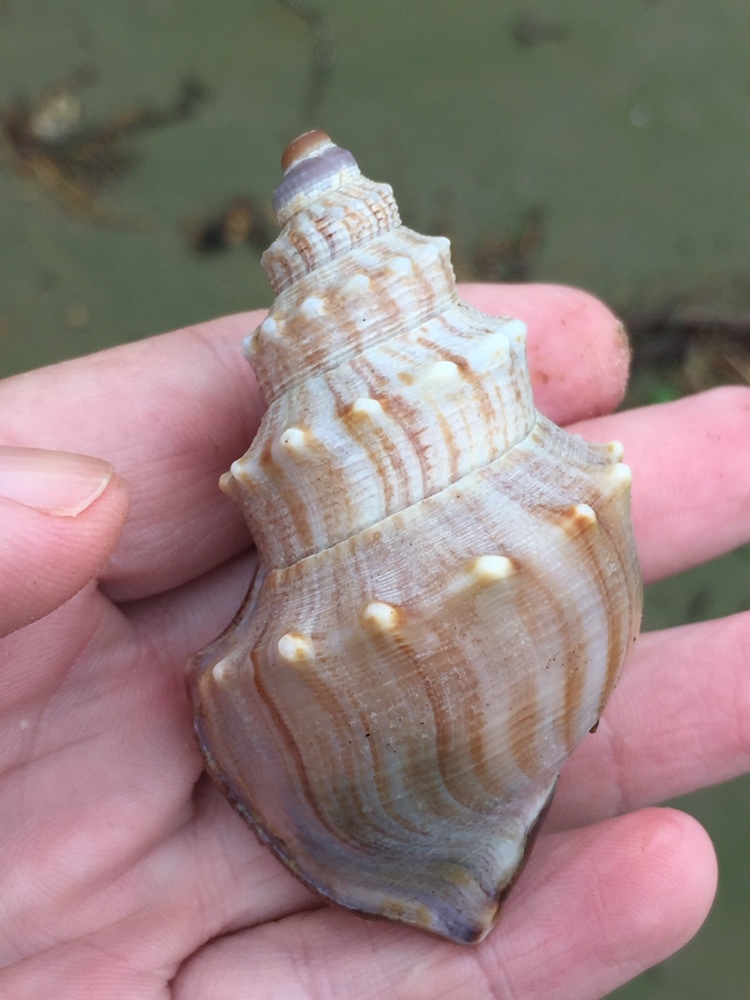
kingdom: Animalia
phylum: Mollusca
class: Gastropoda
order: Littorinimorpha
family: Struthiolariidae
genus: Struthiolaria
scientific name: Struthiolaria papulosa
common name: Large ostrich foot
